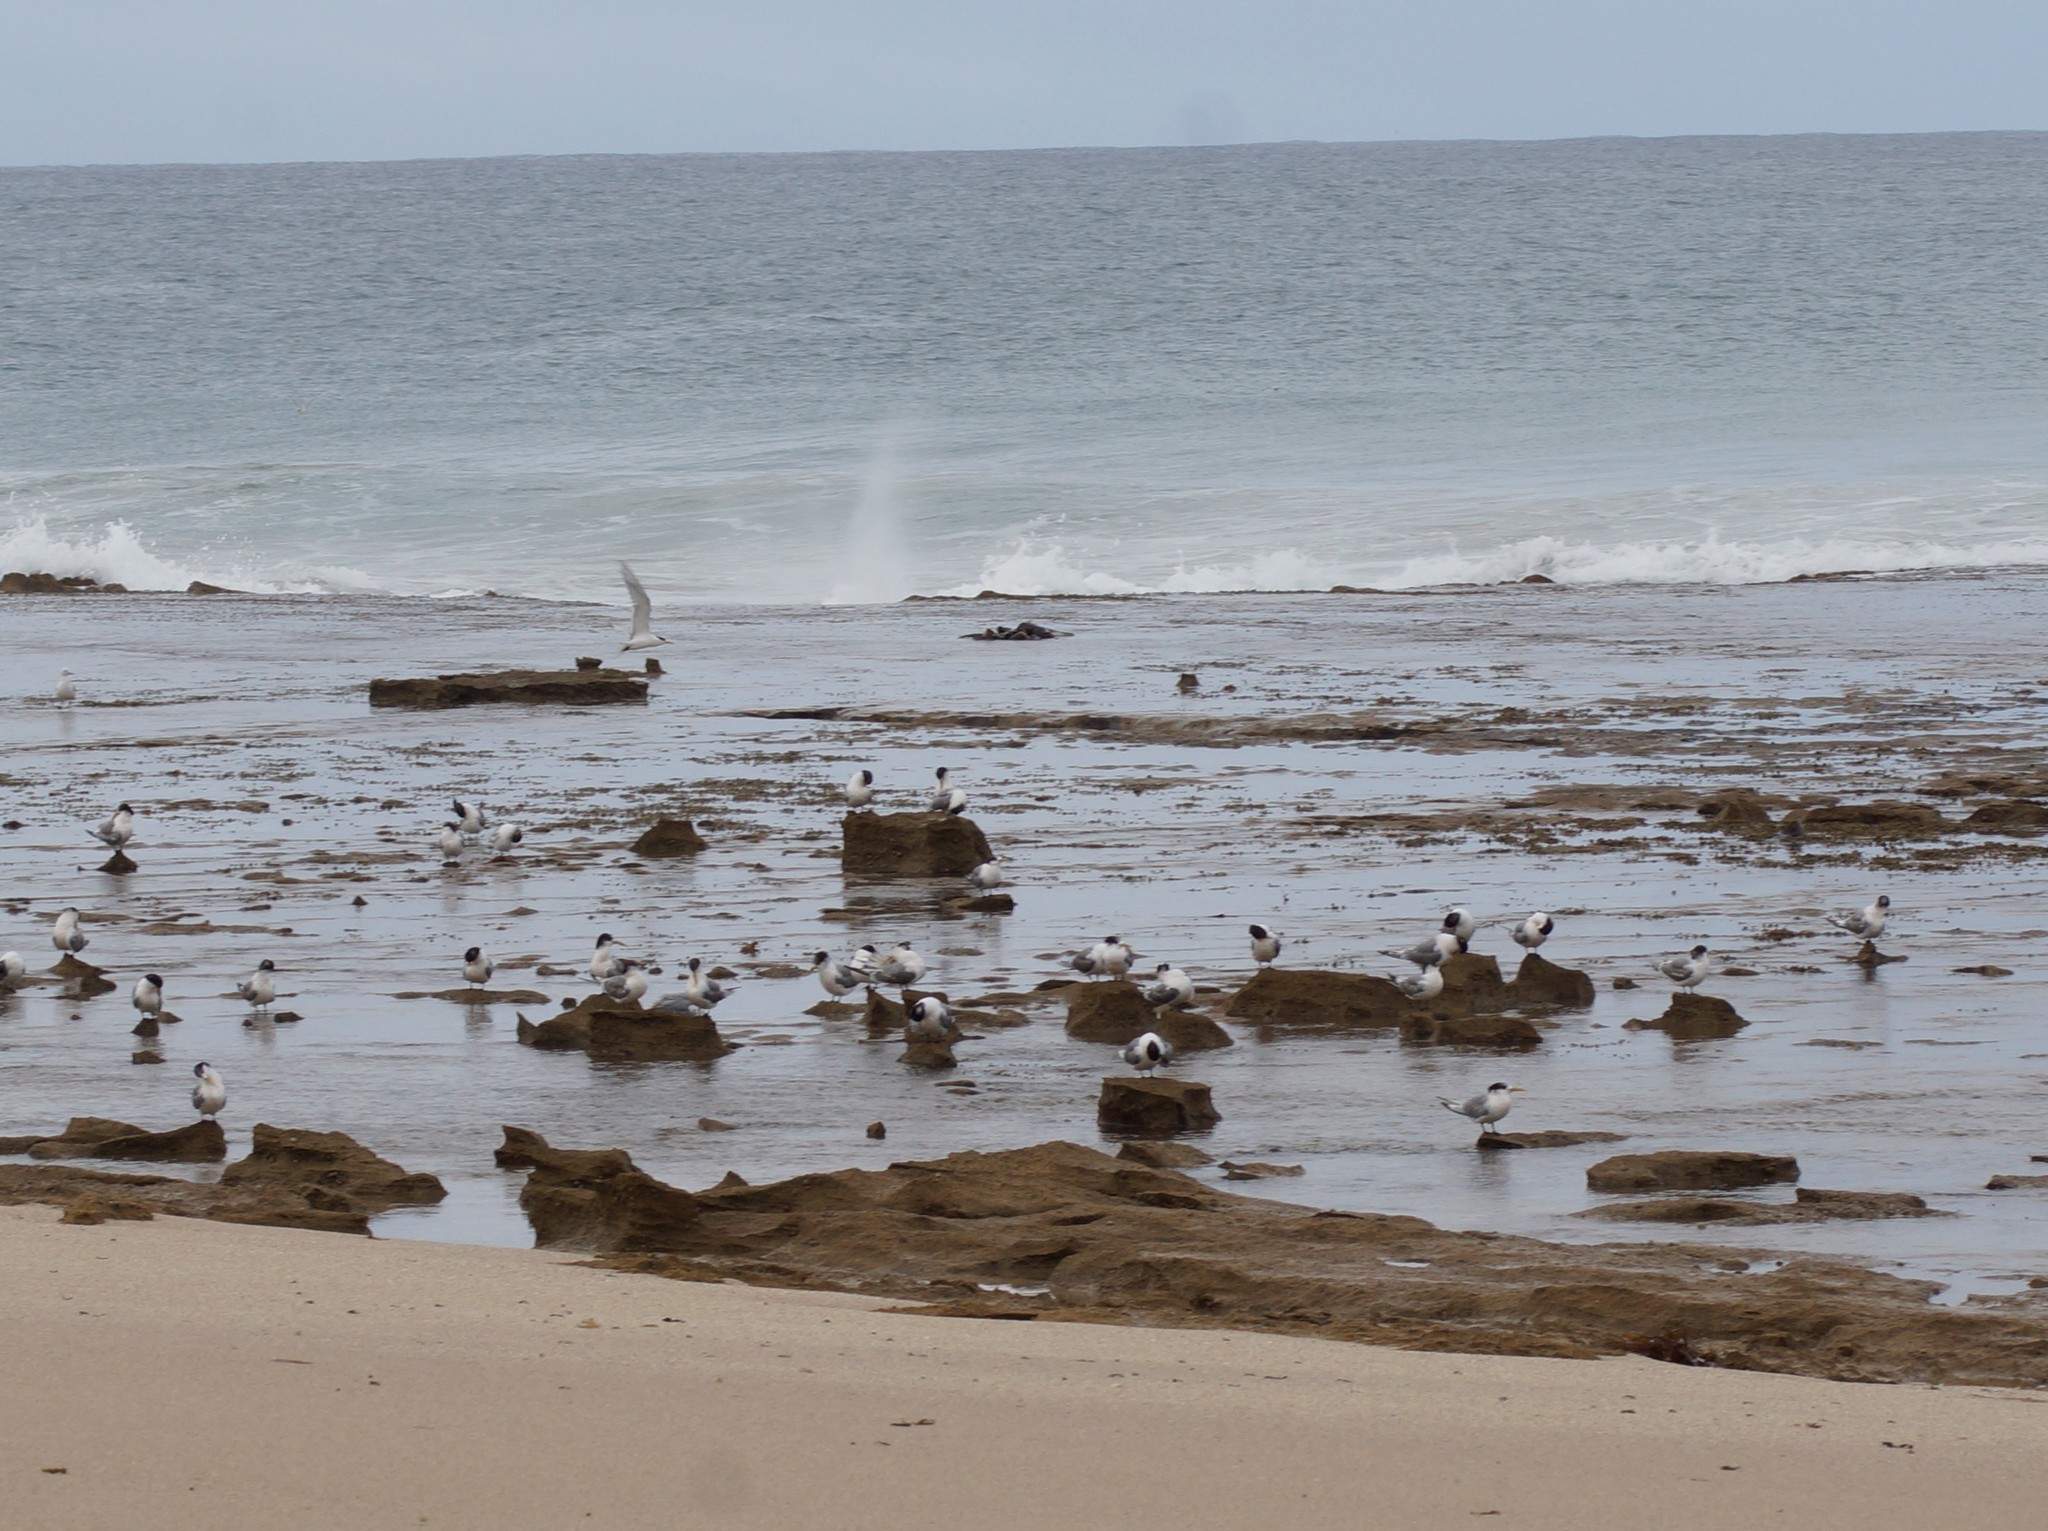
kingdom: Animalia
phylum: Chordata
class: Aves
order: Charadriiformes
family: Laridae
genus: Thalasseus
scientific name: Thalasseus bergii
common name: Greater crested tern
